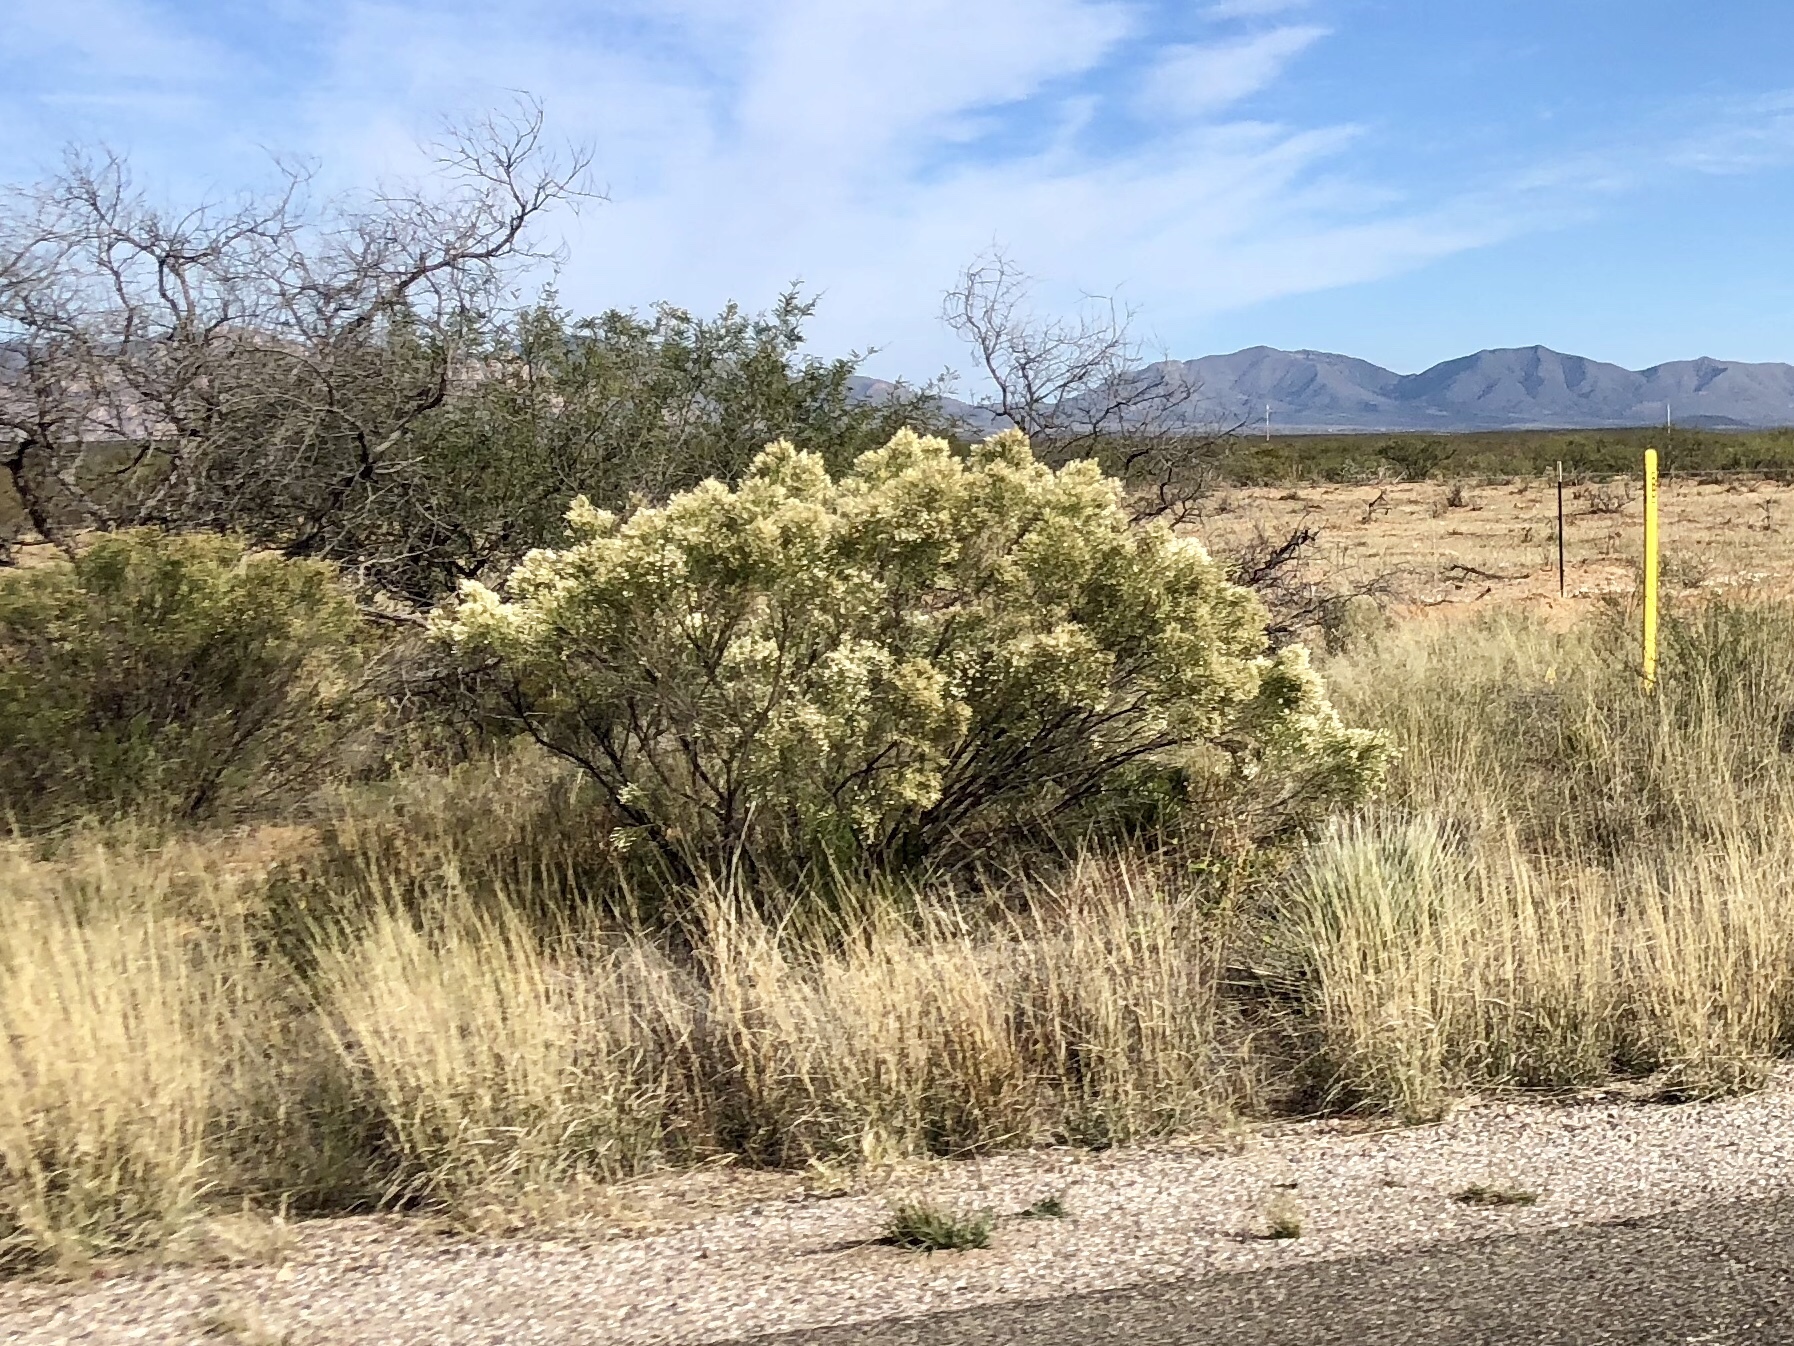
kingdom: Plantae
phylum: Tracheophyta
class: Magnoliopsida
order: Asterales
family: Asteraceae
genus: Baccharis
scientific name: Baccharis sarothroides
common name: Desert-broom
